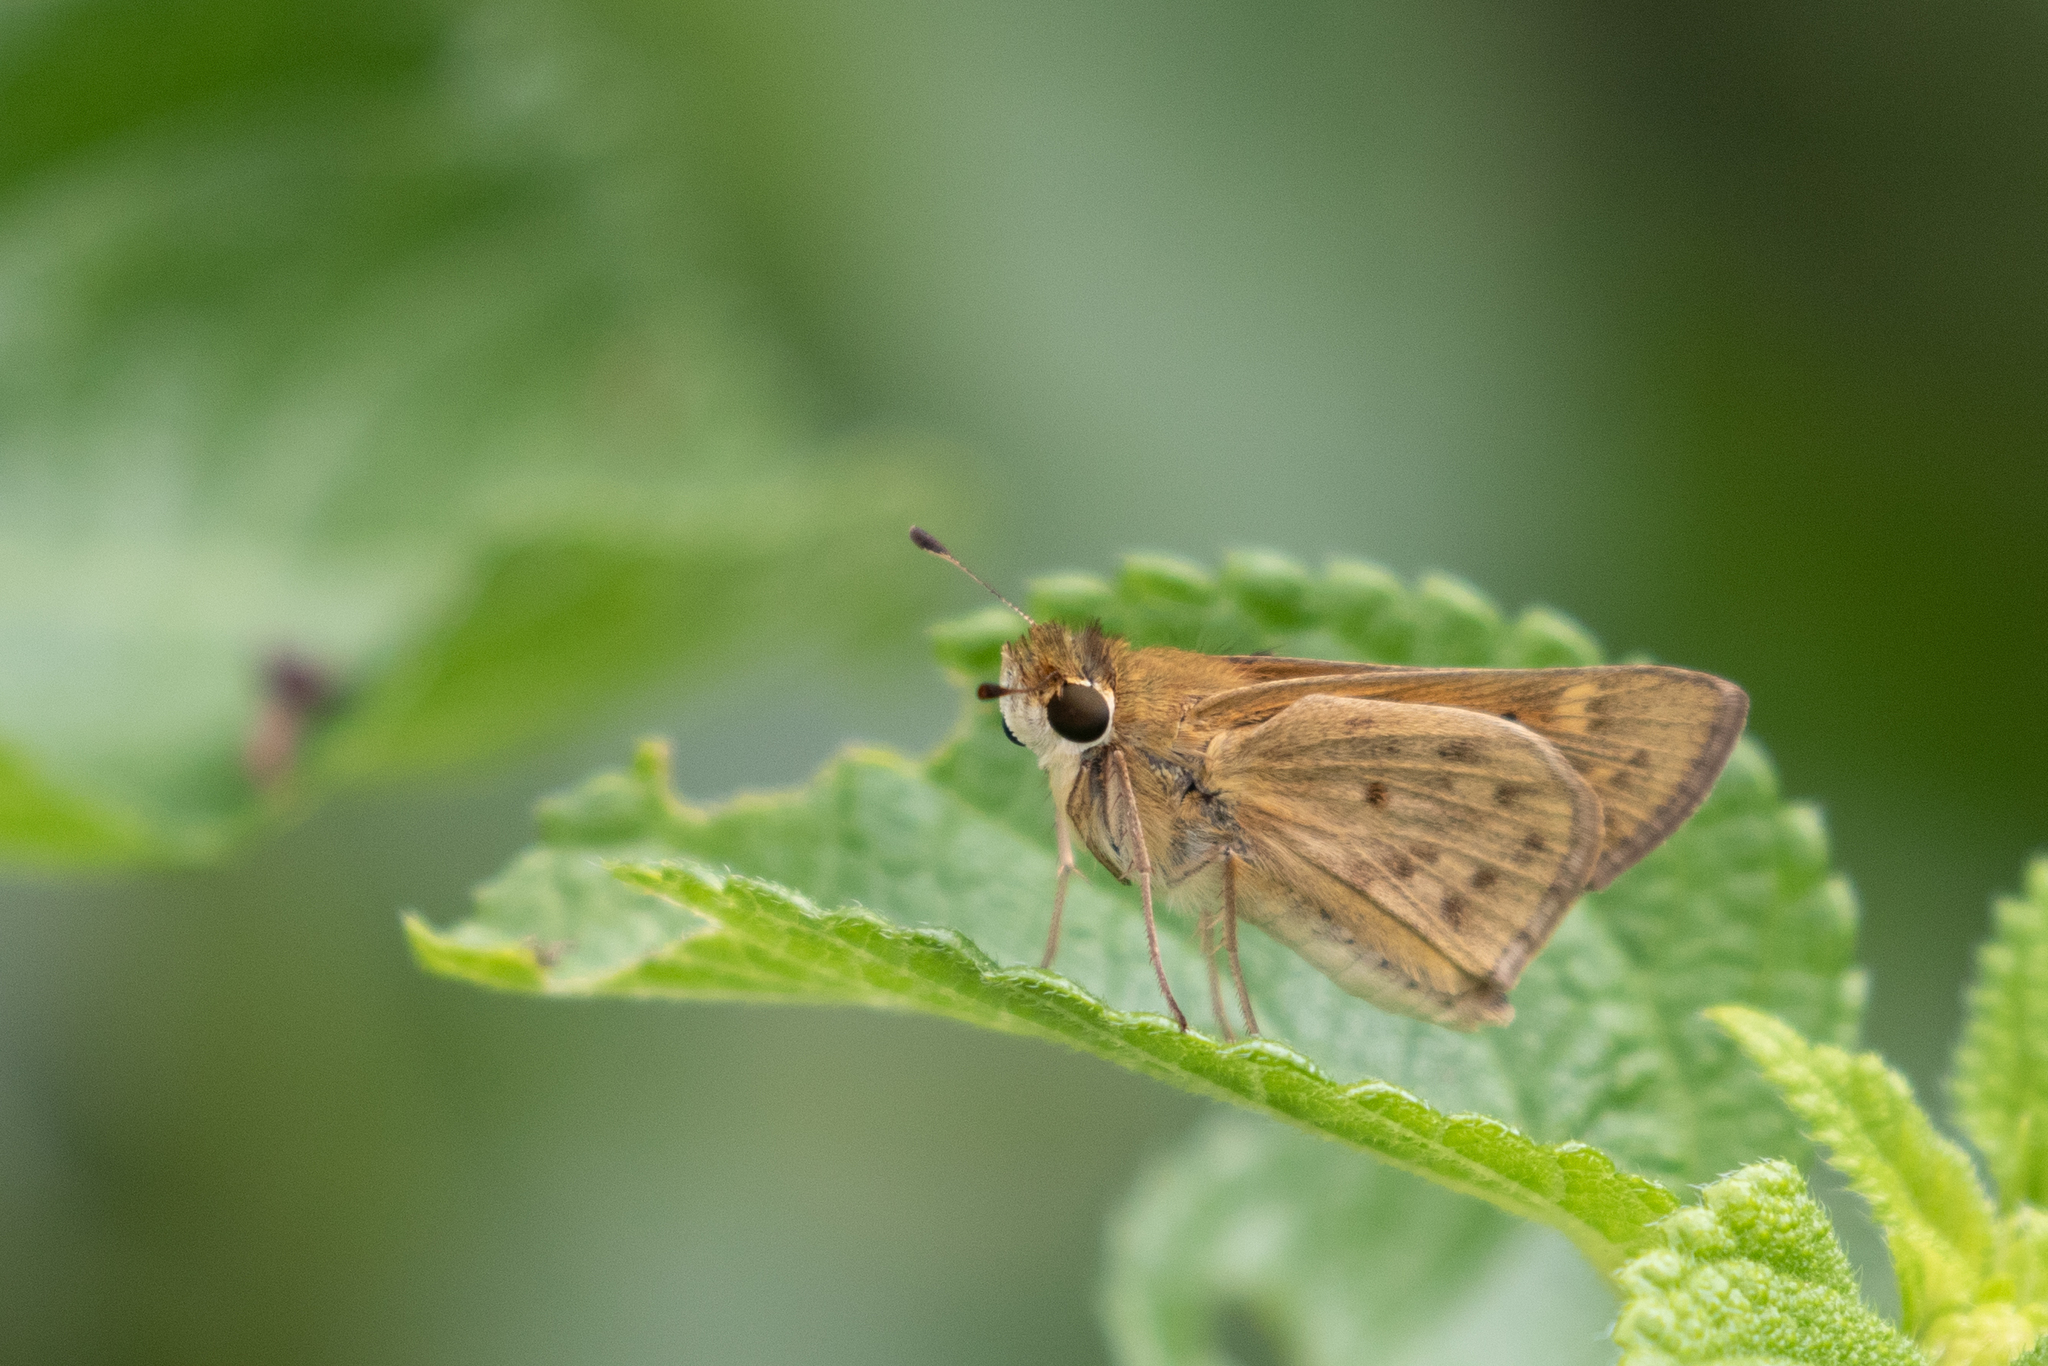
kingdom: Animalia
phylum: Arthropoda
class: Insecta
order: Lepidoptera
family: Hesperiidae
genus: Hylephila
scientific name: Hylephila phyleus
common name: Fiery skipper
